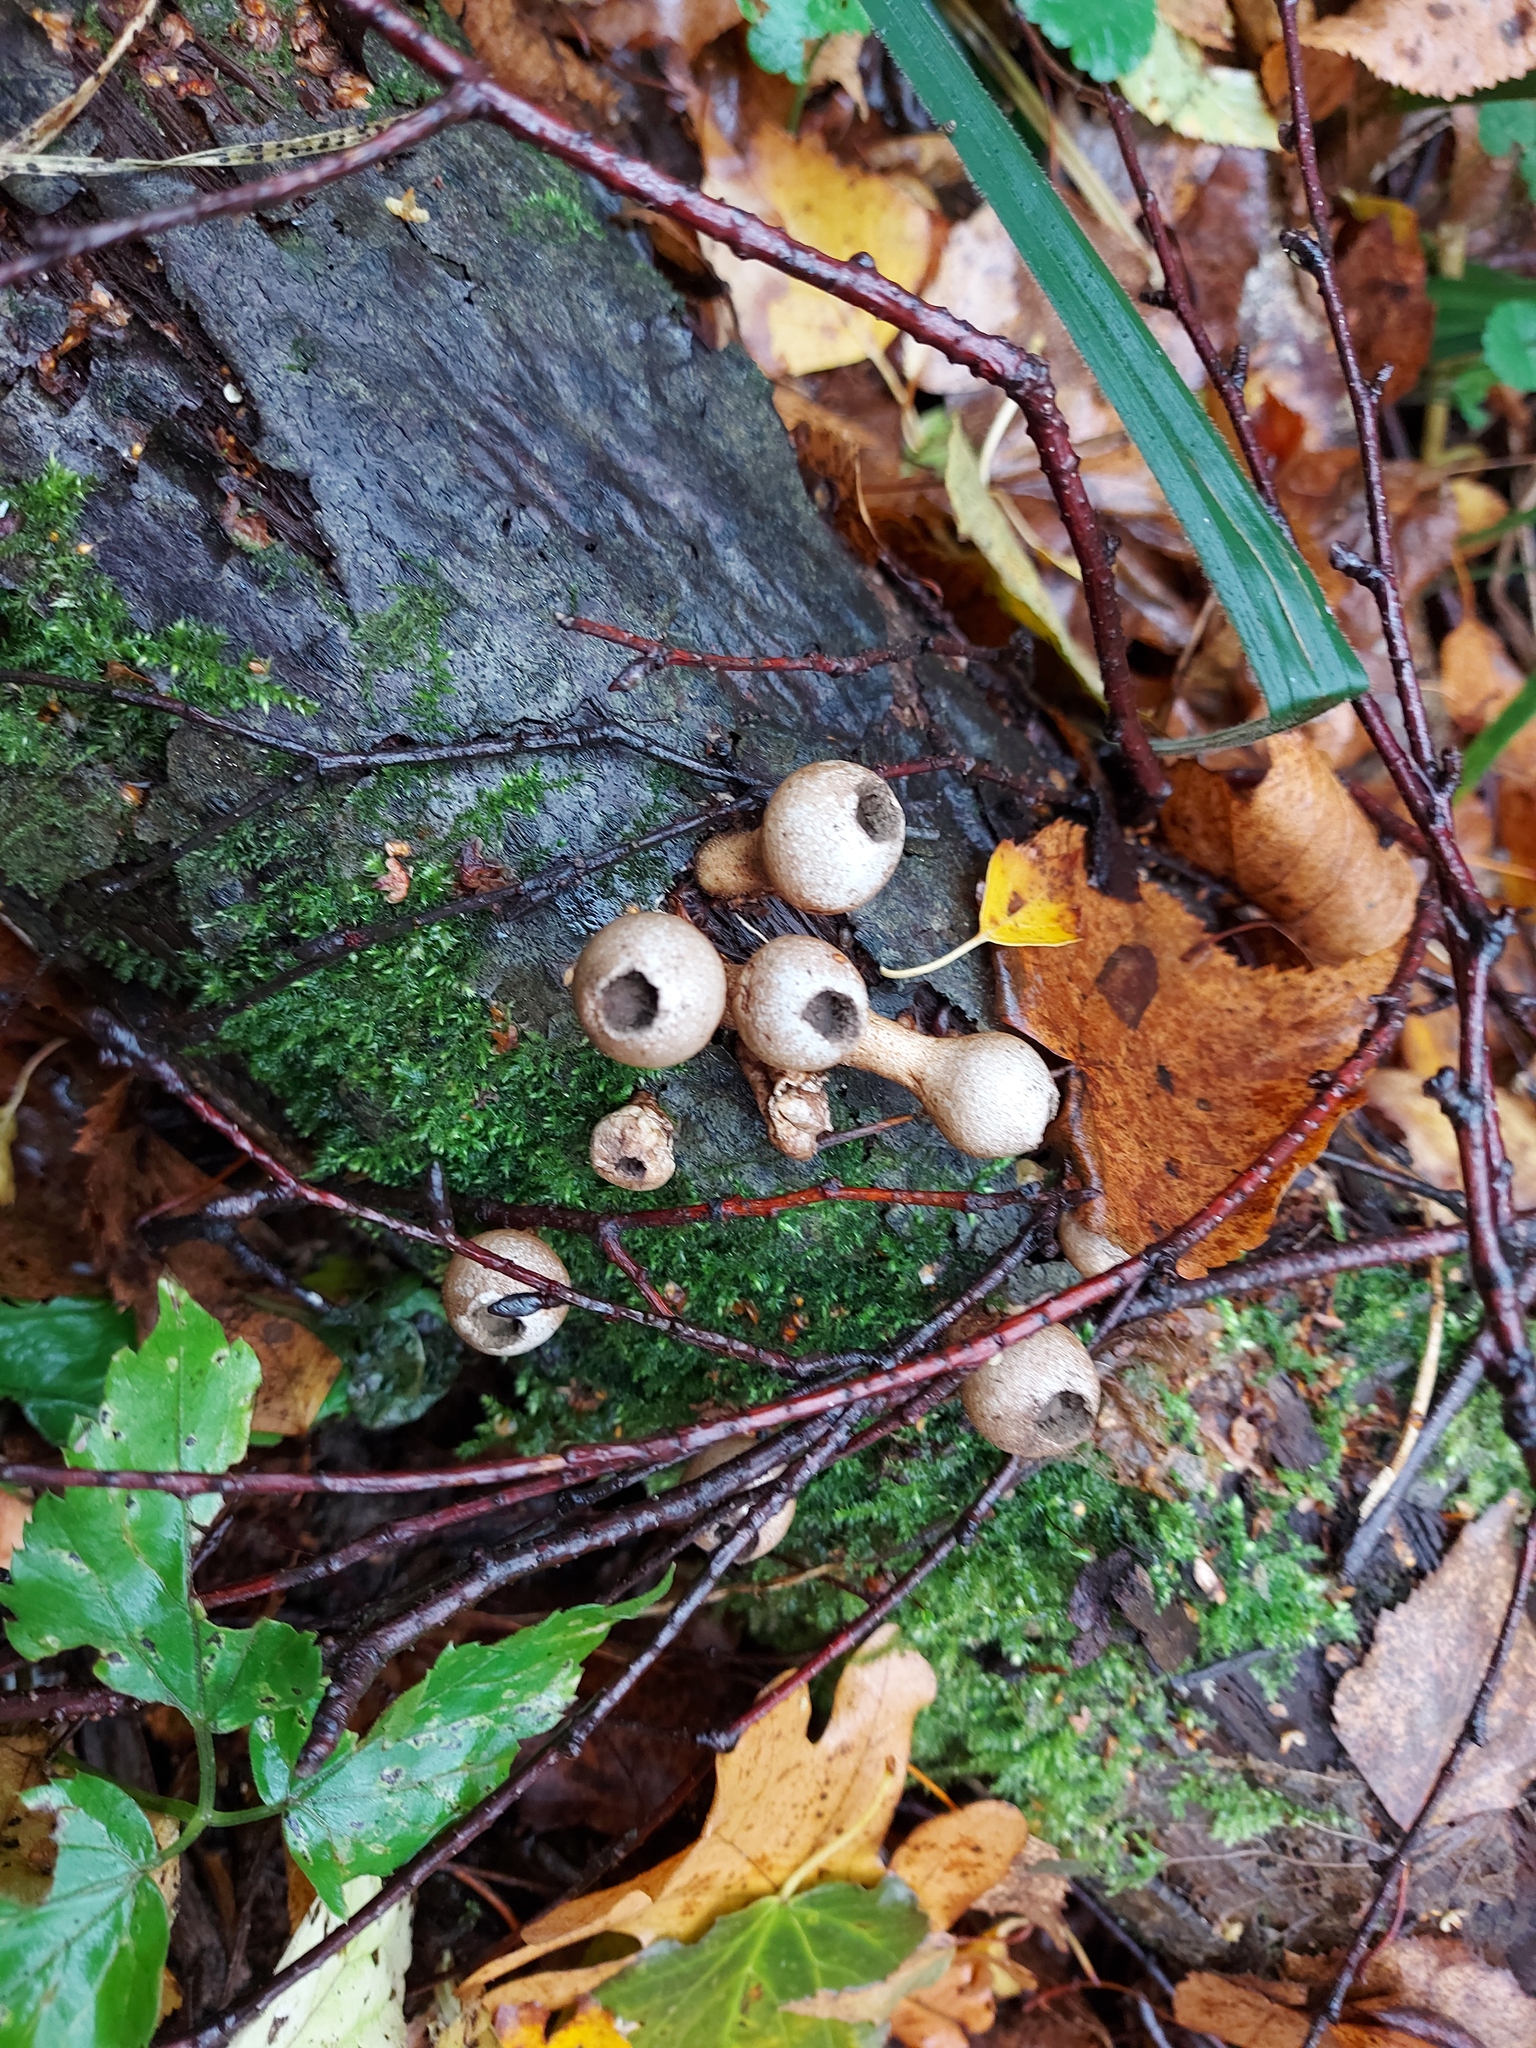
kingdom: Fungi
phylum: Basidiomycota
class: Agaricomycetes
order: Agaricales
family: Lycoperdaceae
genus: Apioperdon
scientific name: Apioperdon pyriforme
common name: Pear-shaped puffball
